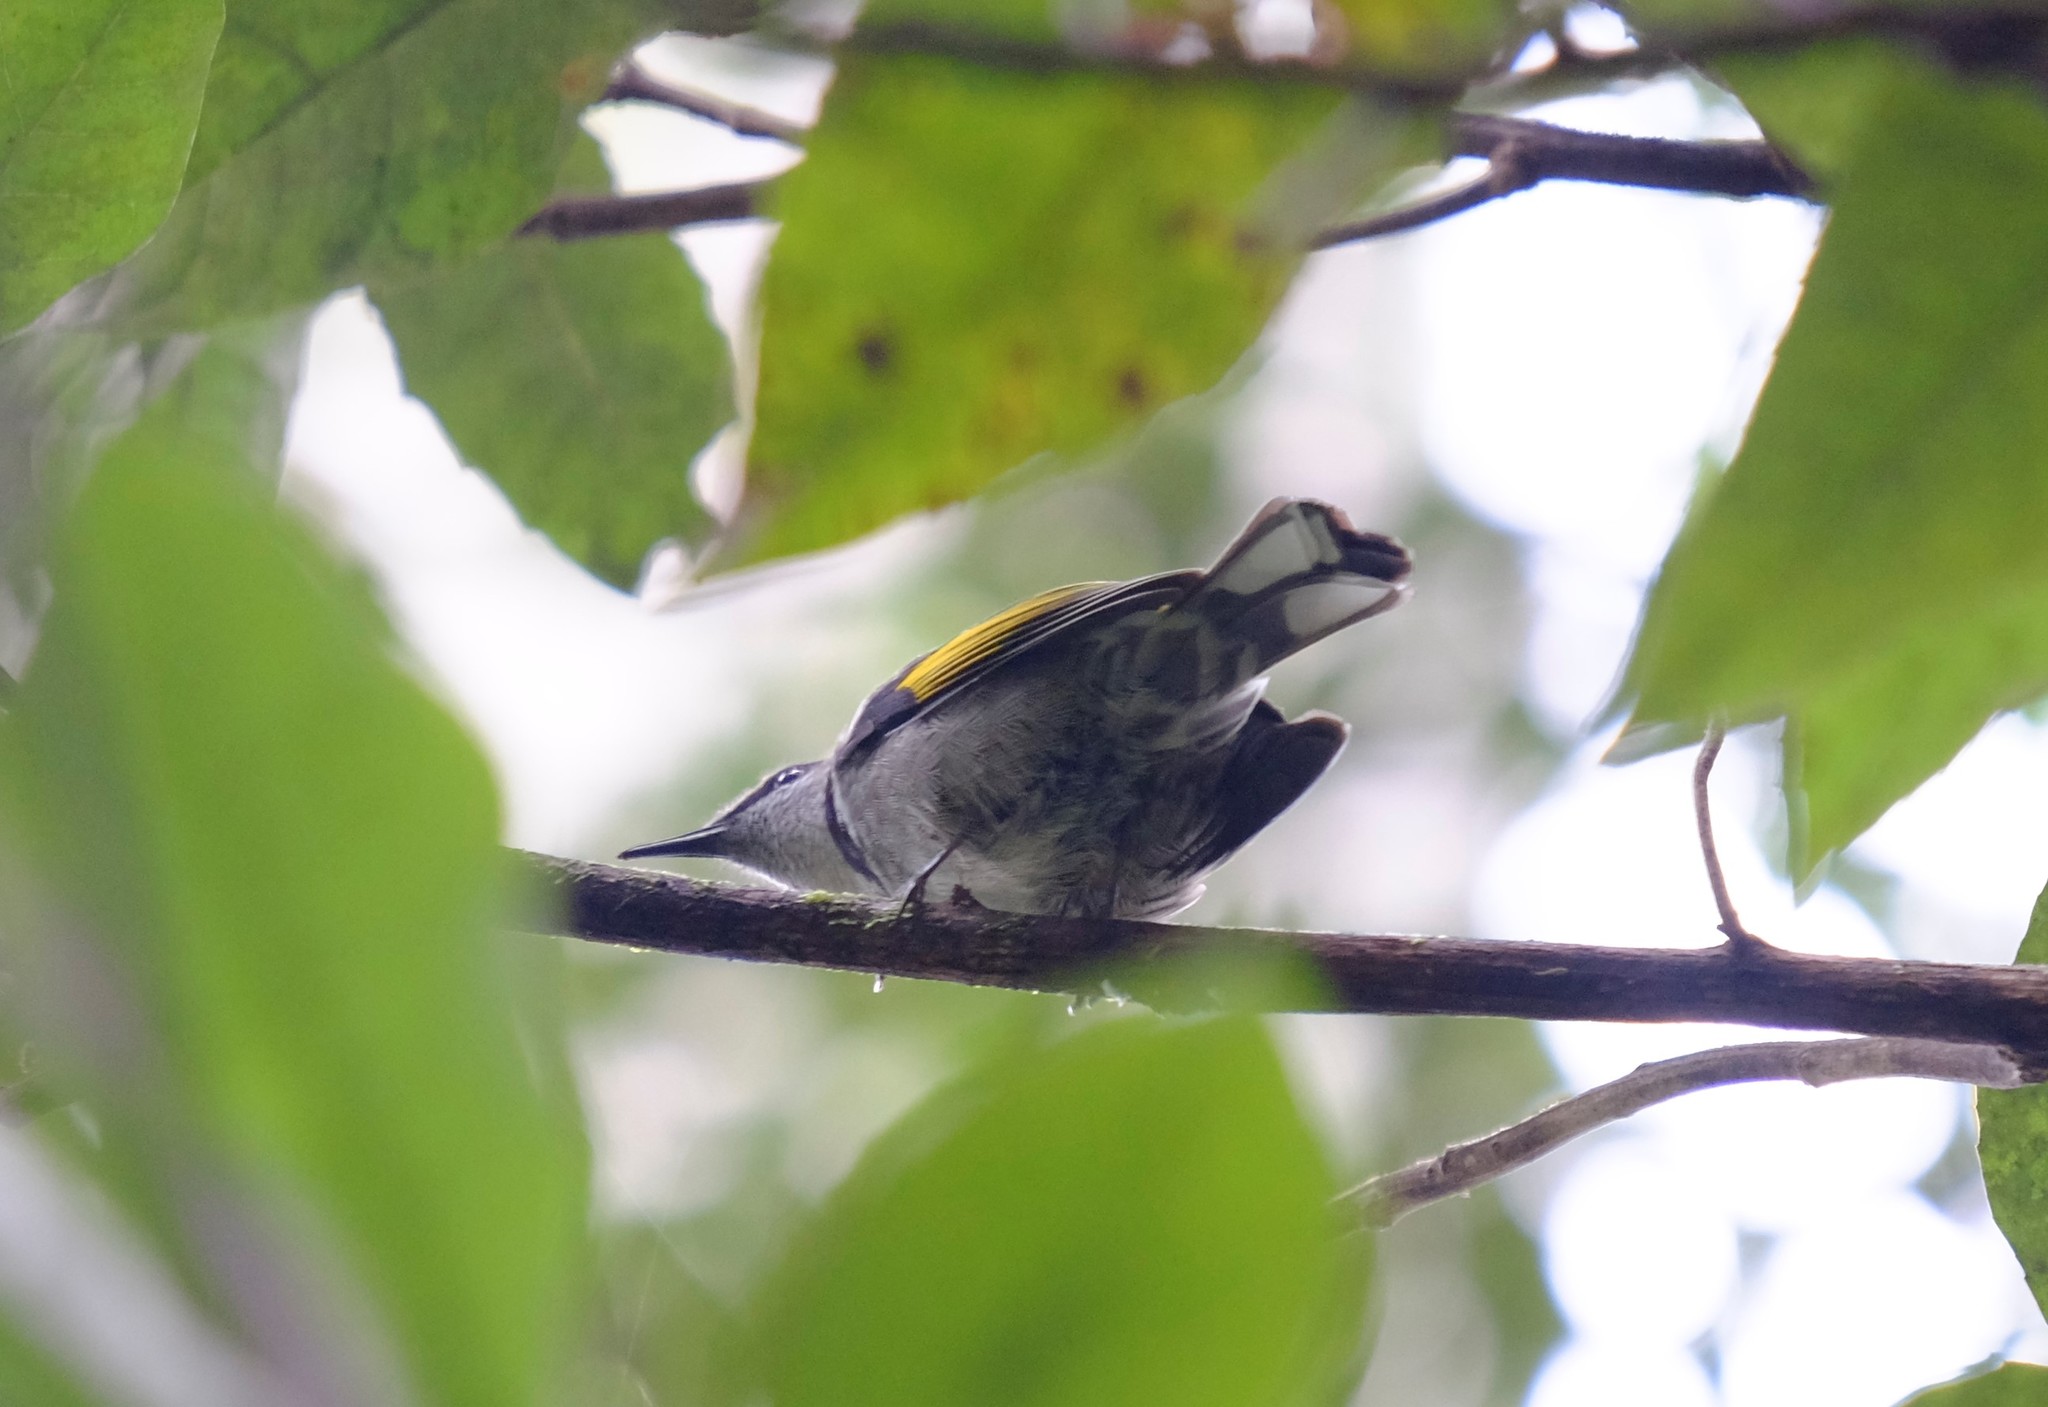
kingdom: Animalia
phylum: Chordata
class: Aves
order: Passeriformes
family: Meliphagidae
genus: Phylidonyris
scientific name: Phylidonyris pyrrhopterus
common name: Crescent honeyeater
